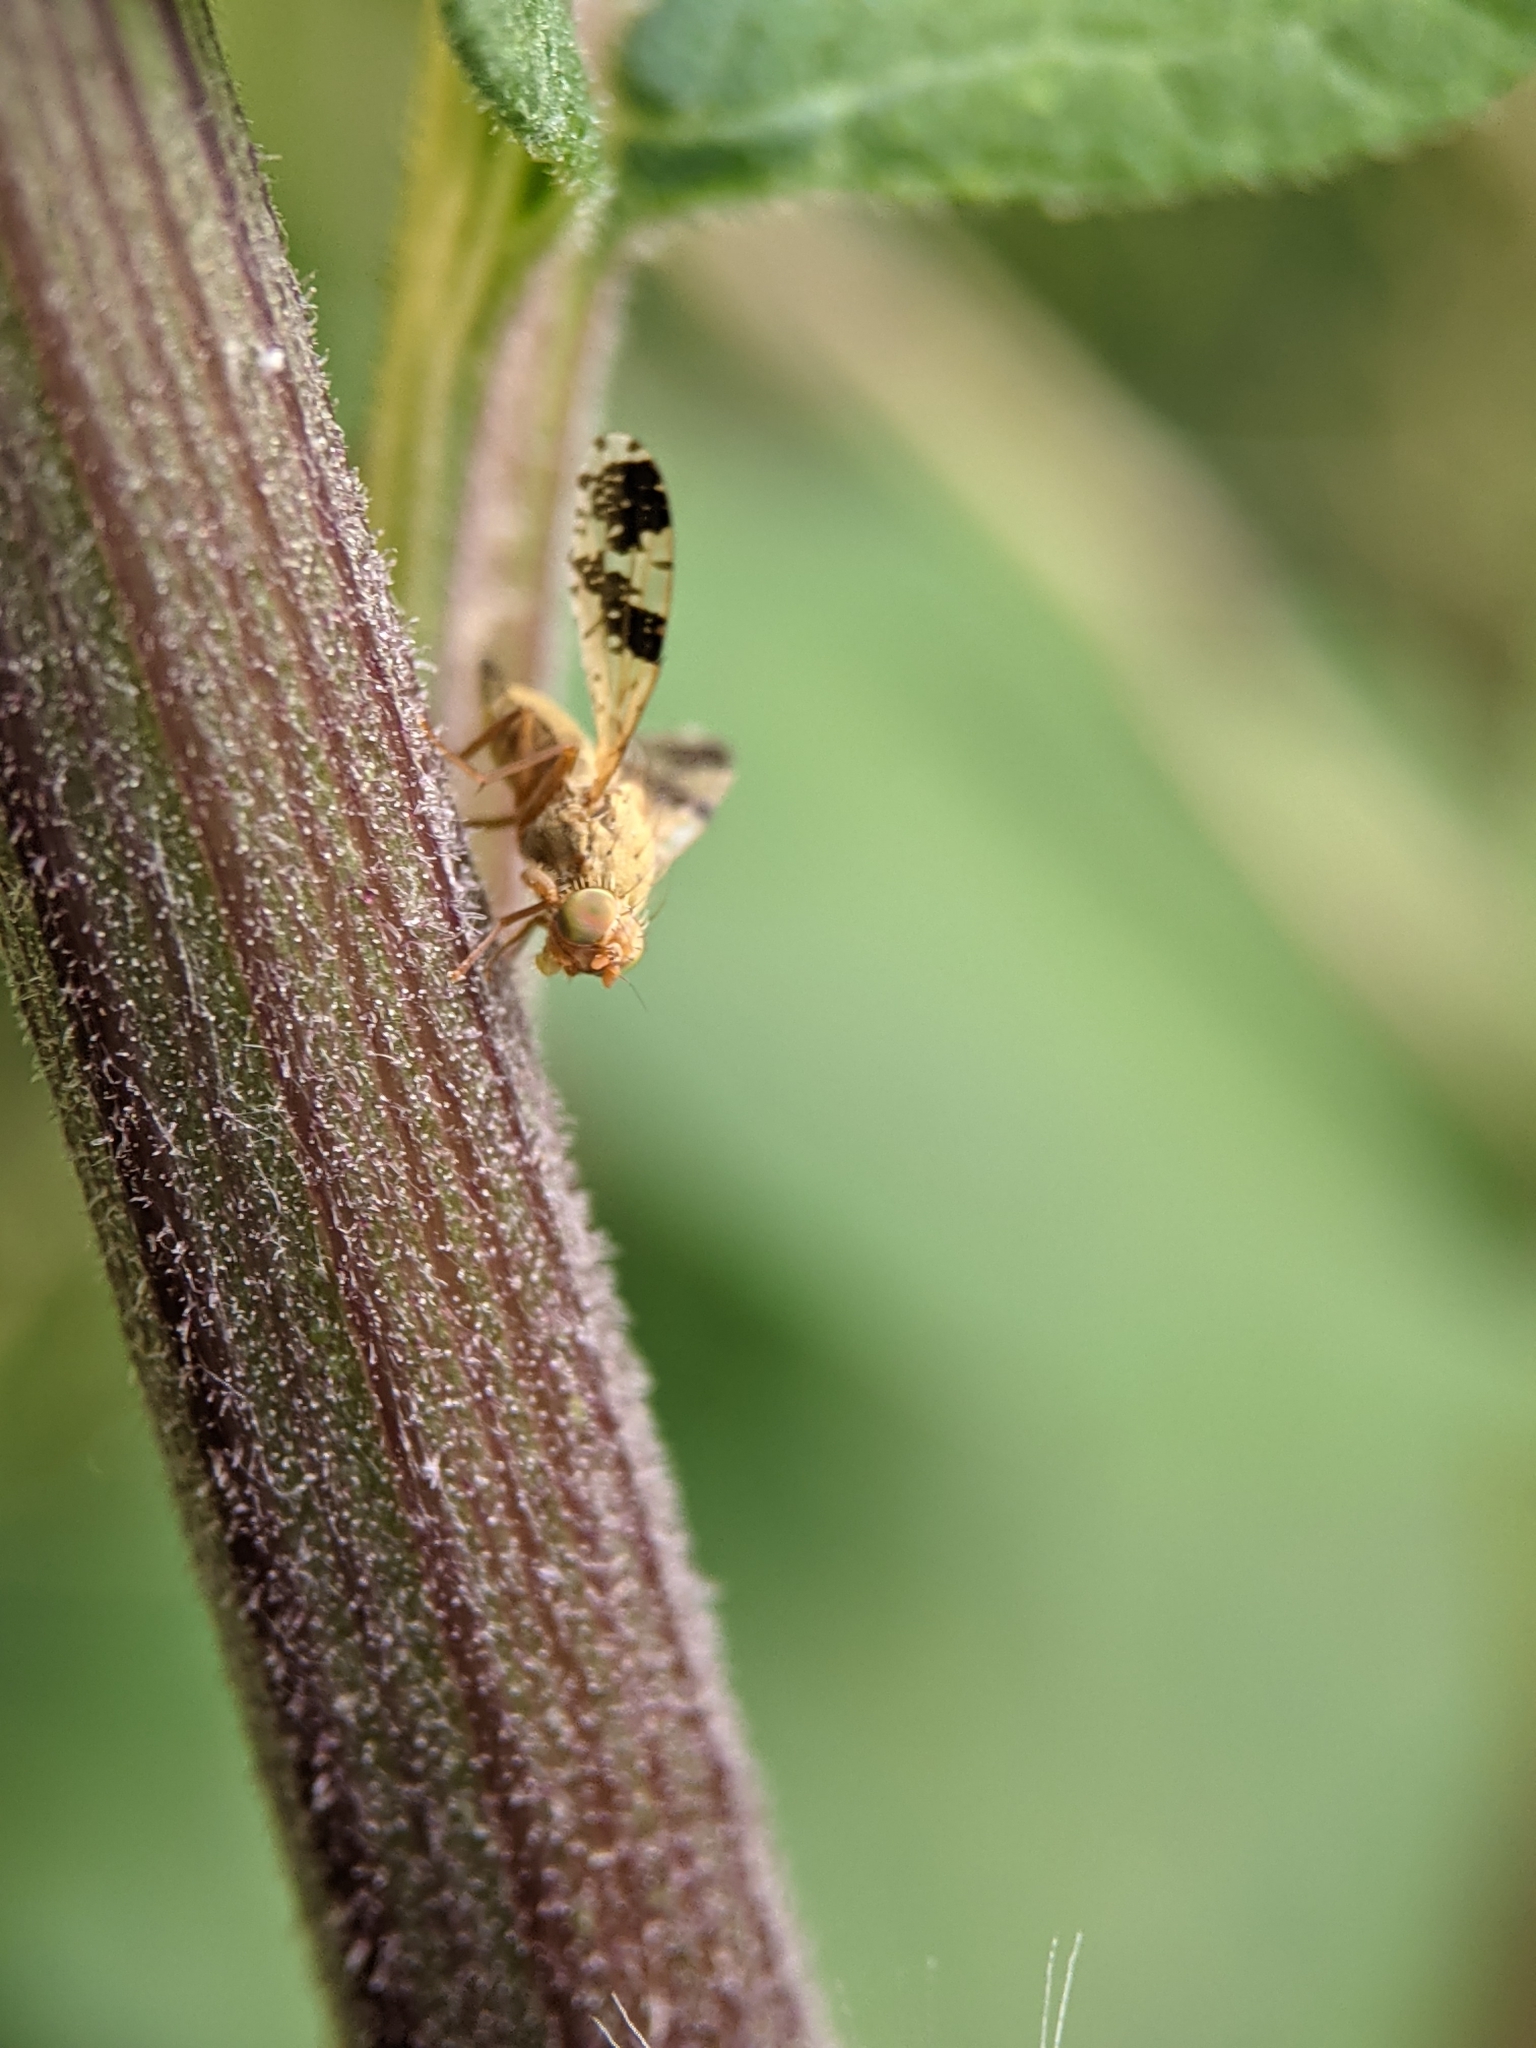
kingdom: Animalia
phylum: Arthropoda
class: Insecta
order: Diptera
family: Tephritidae
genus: Tephritis
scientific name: Tephritis bardanae
